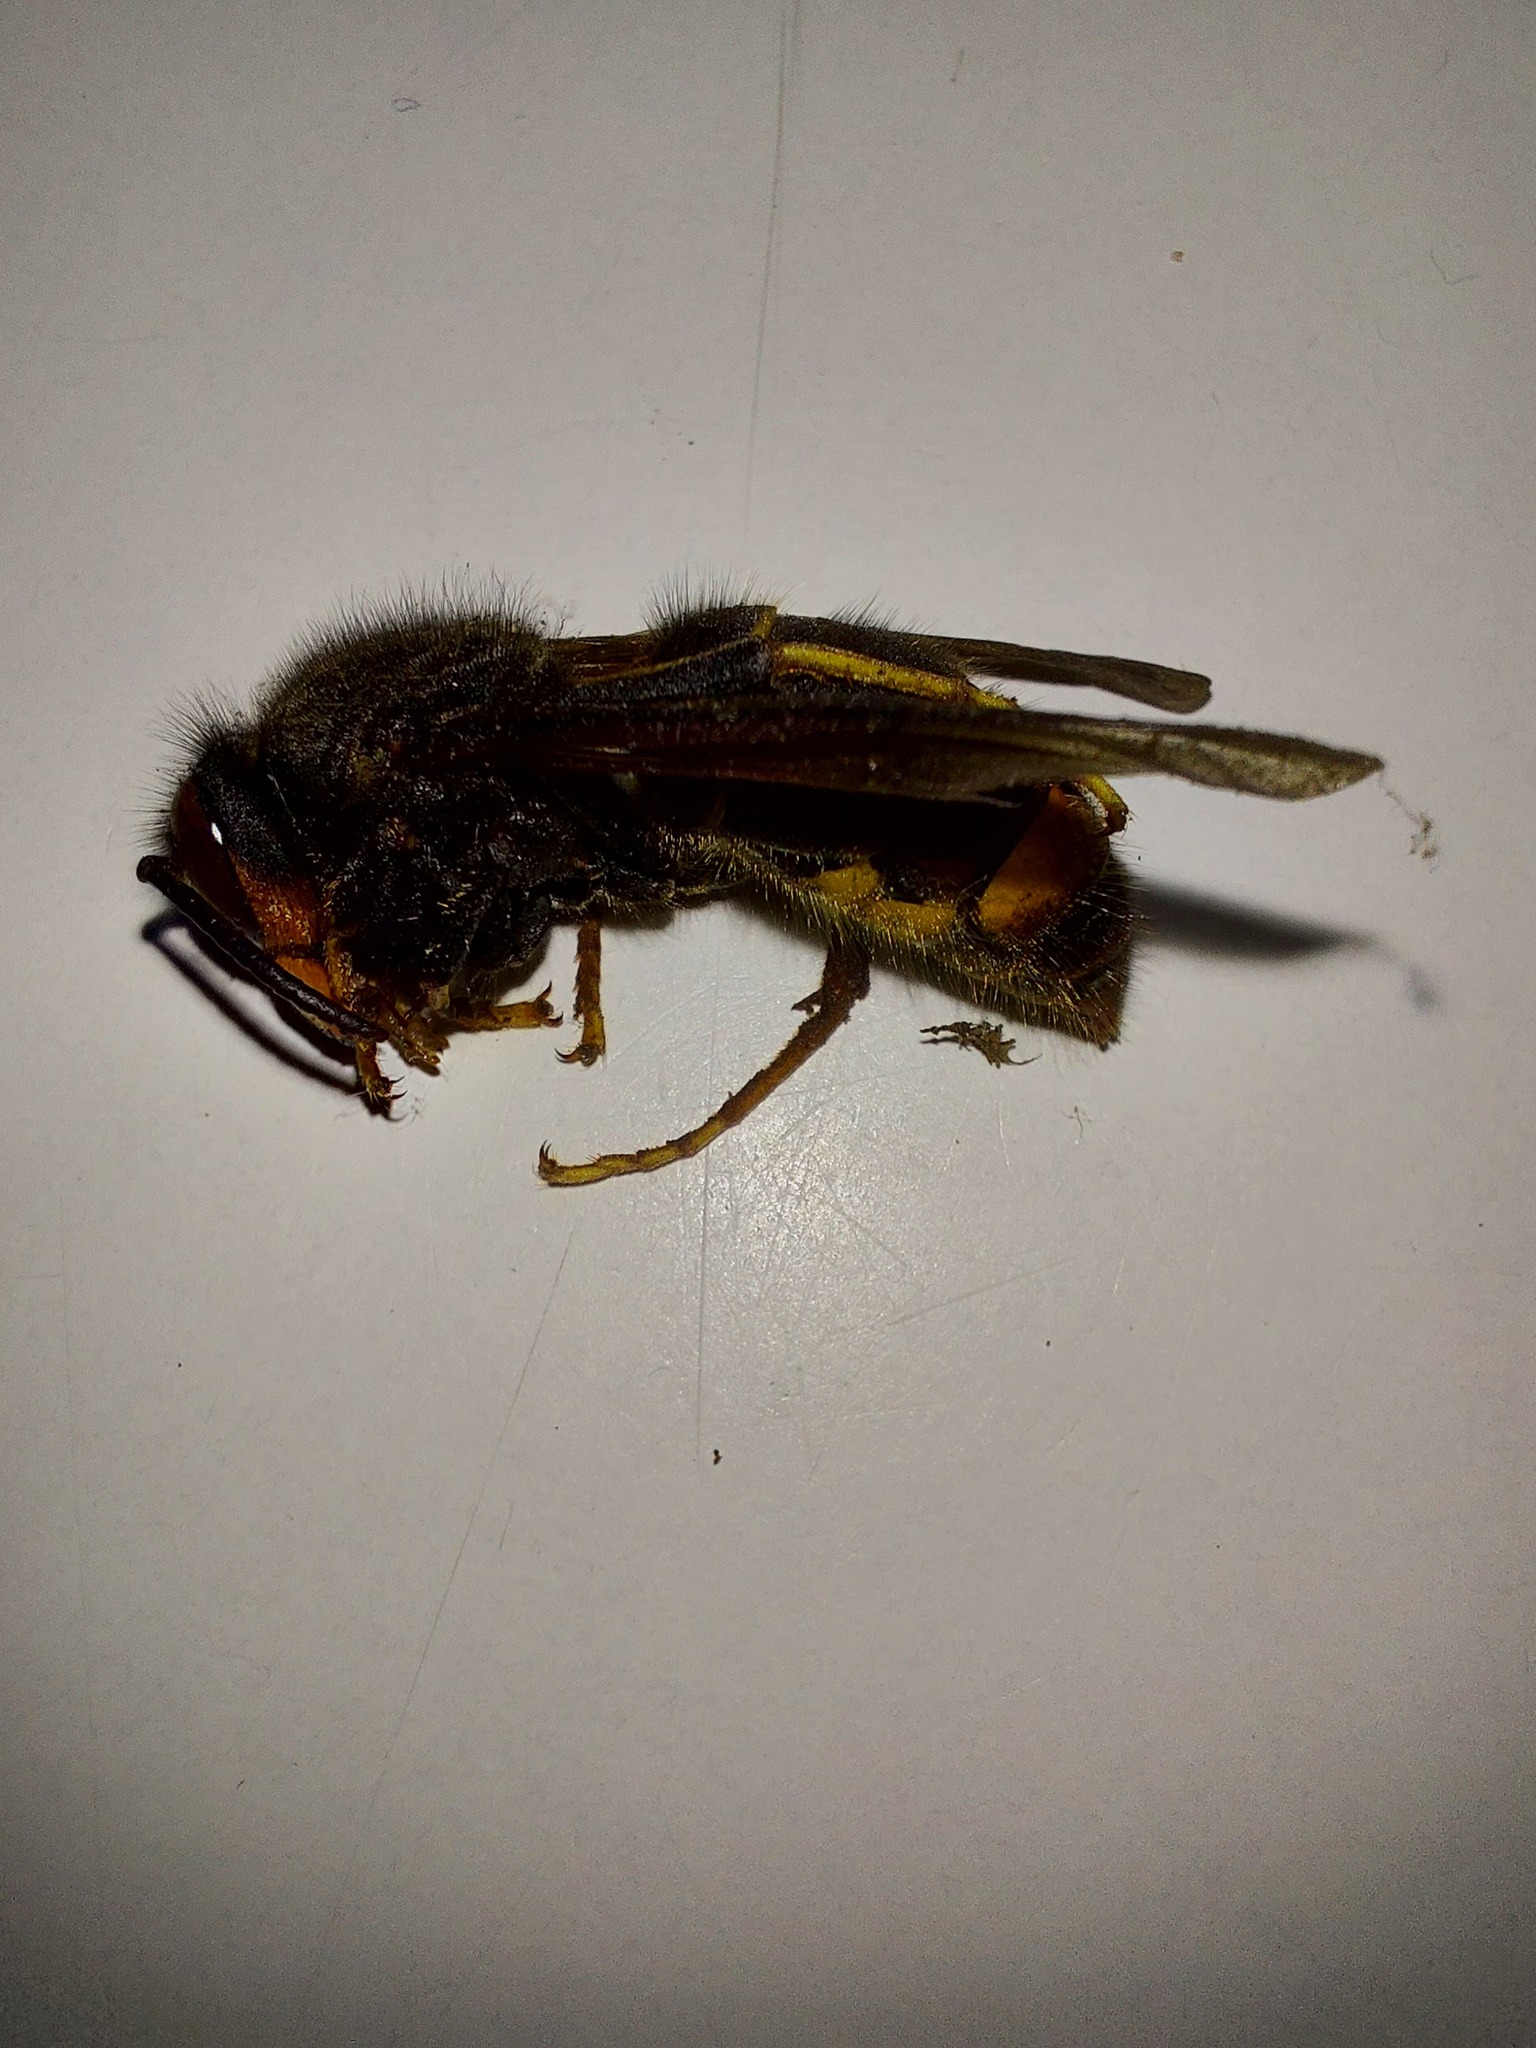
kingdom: Animalia
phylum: Arthropoda
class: Insecta
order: Hymenoptera
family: Vespidae
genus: Vespa
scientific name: Vespa velutina
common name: Asian hornet
